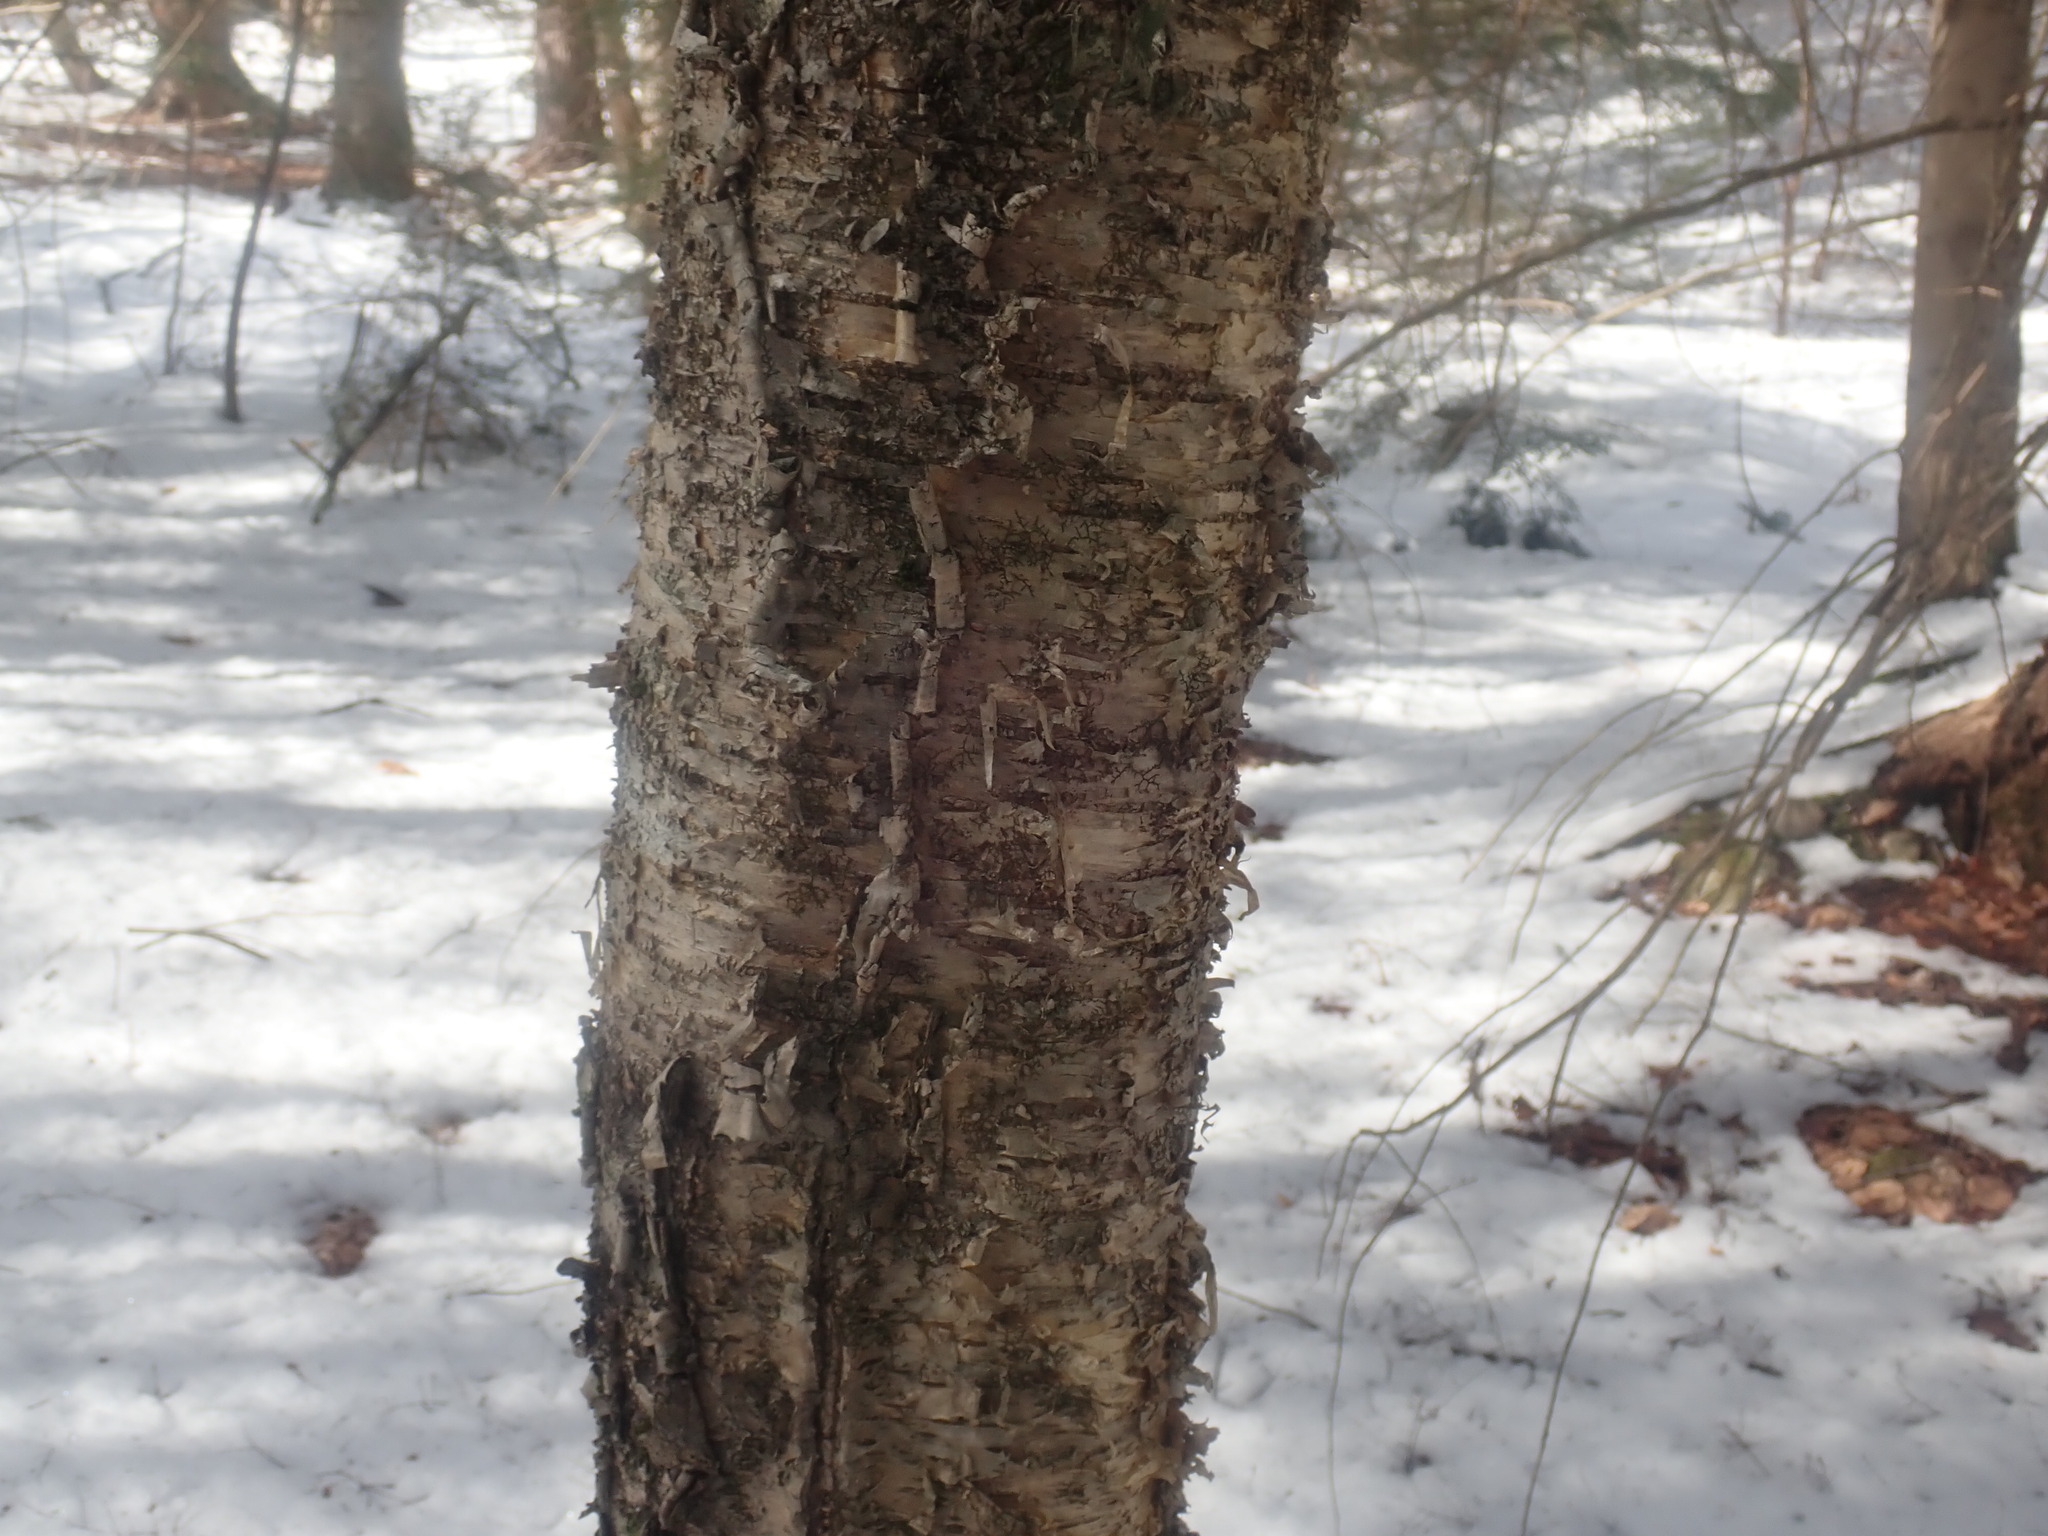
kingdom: Plantae
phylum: Tracheophyta
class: Magnoliopsida
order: Fagales
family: Betulaceae
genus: Betula
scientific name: Betula alleghaniensis
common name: Yellow birch
